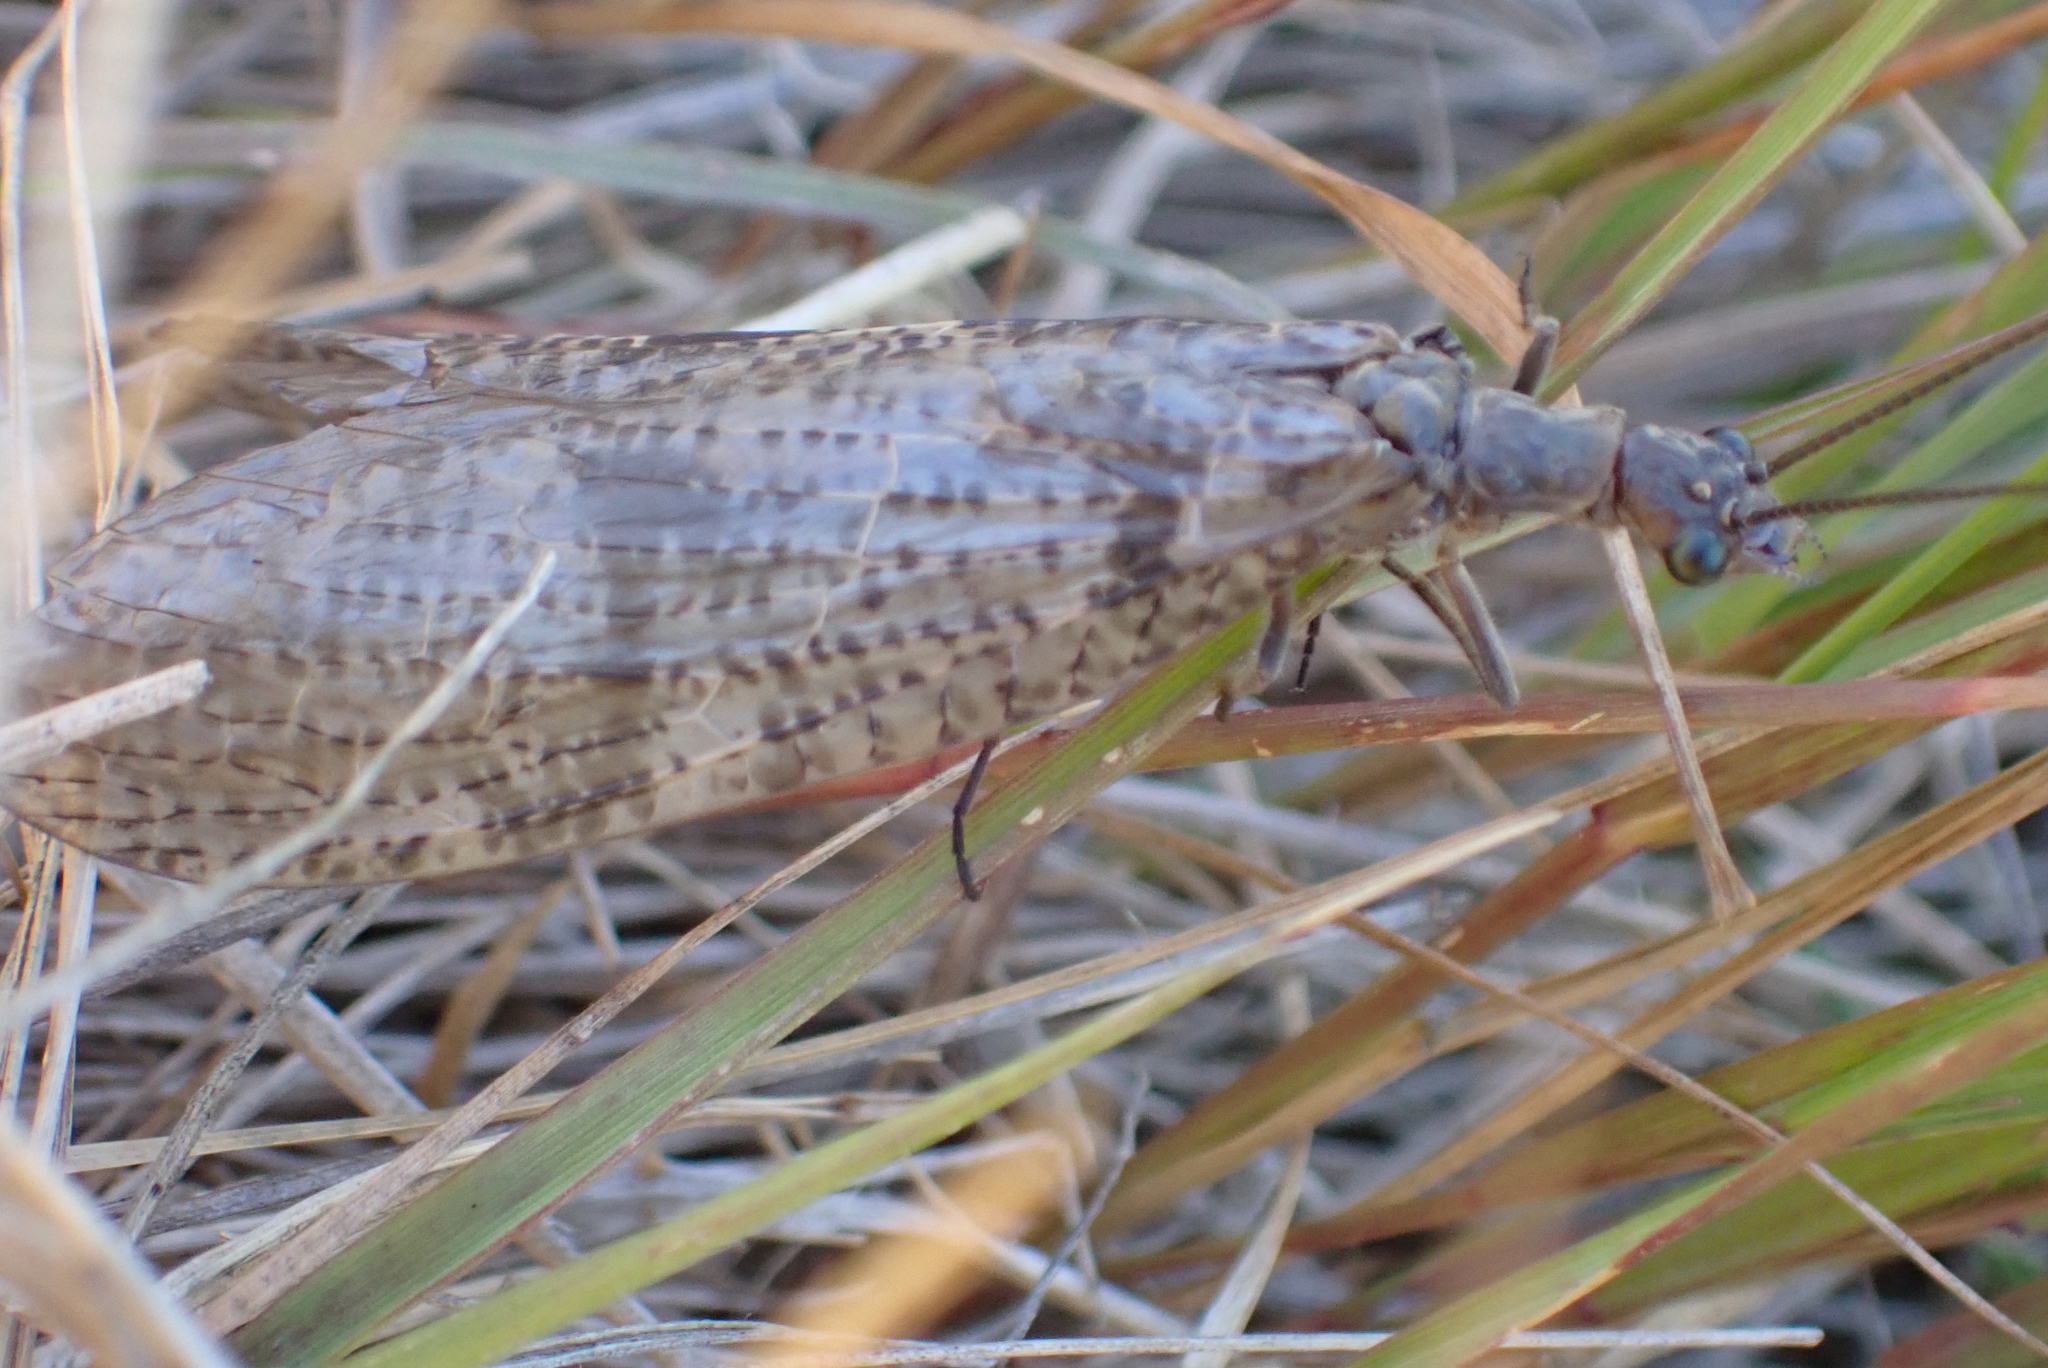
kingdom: Animalia
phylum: Arthropoda
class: Insecta
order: Megaloptera
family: Corydalidae
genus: Archichauliodes
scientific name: Archichauliodes diversus
